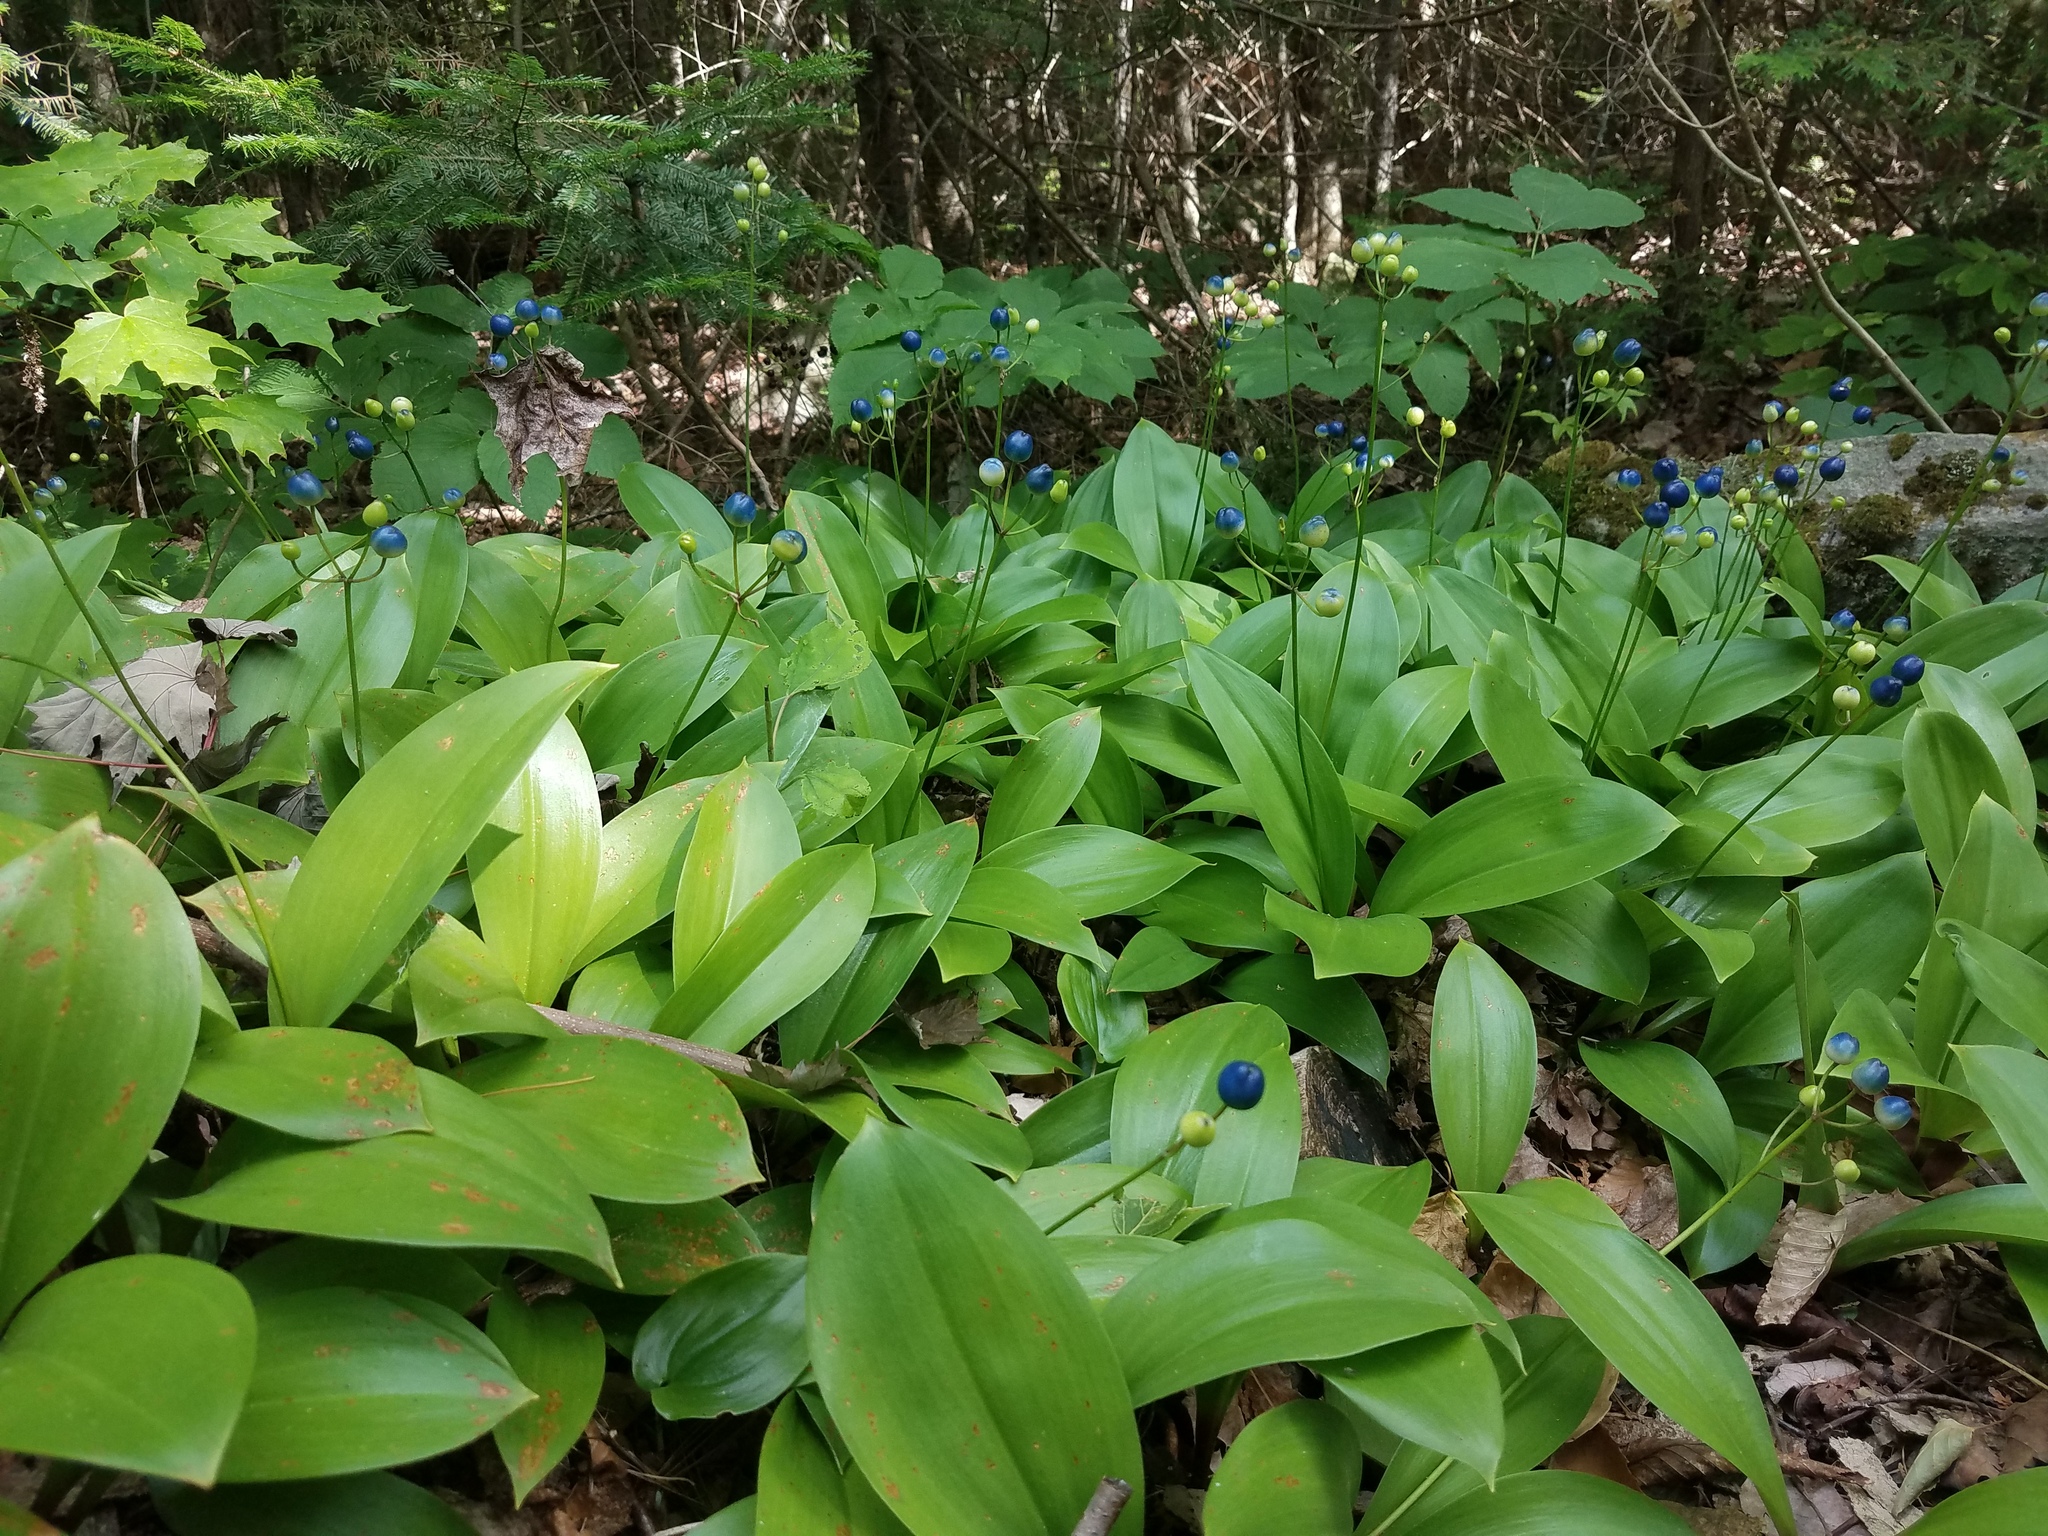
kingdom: Plantae
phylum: Tracheophyta
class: Liliopsida
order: Liliales
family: Liliaceae
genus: Clintonia
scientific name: Clintonia borealis
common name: Yellow clintonia
